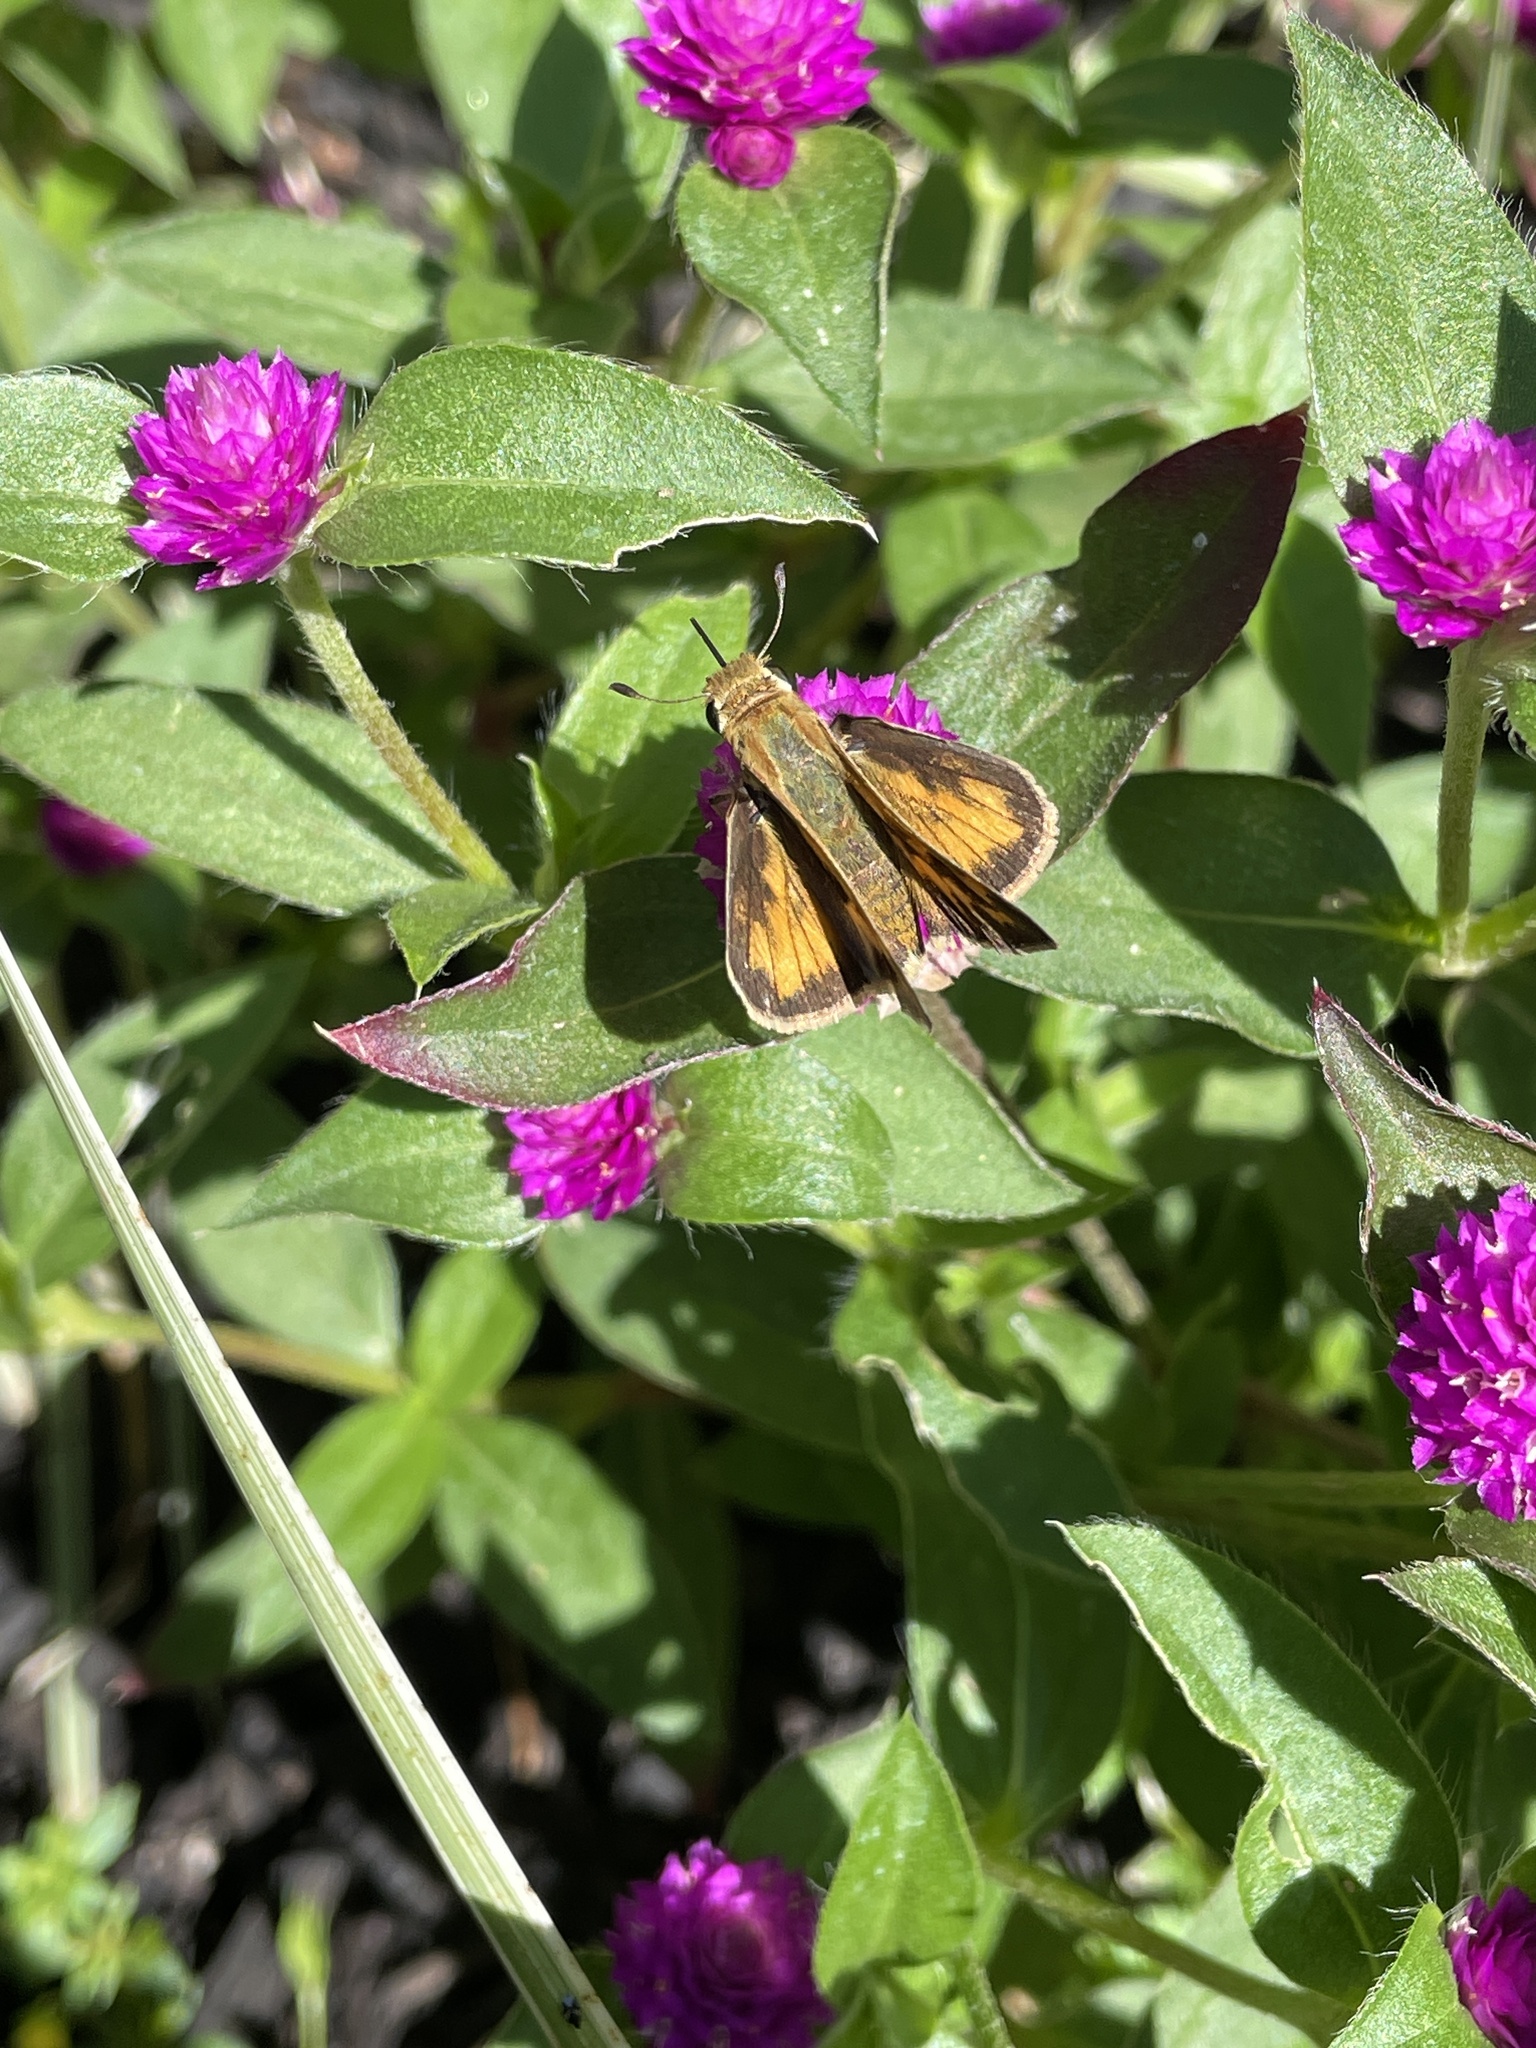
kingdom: Animalia
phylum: Arthropoda
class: Insecta
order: Lepidoptera
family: Hesperiidae
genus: Hylephila
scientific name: Hylephila phyleus
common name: Fiery skipper
